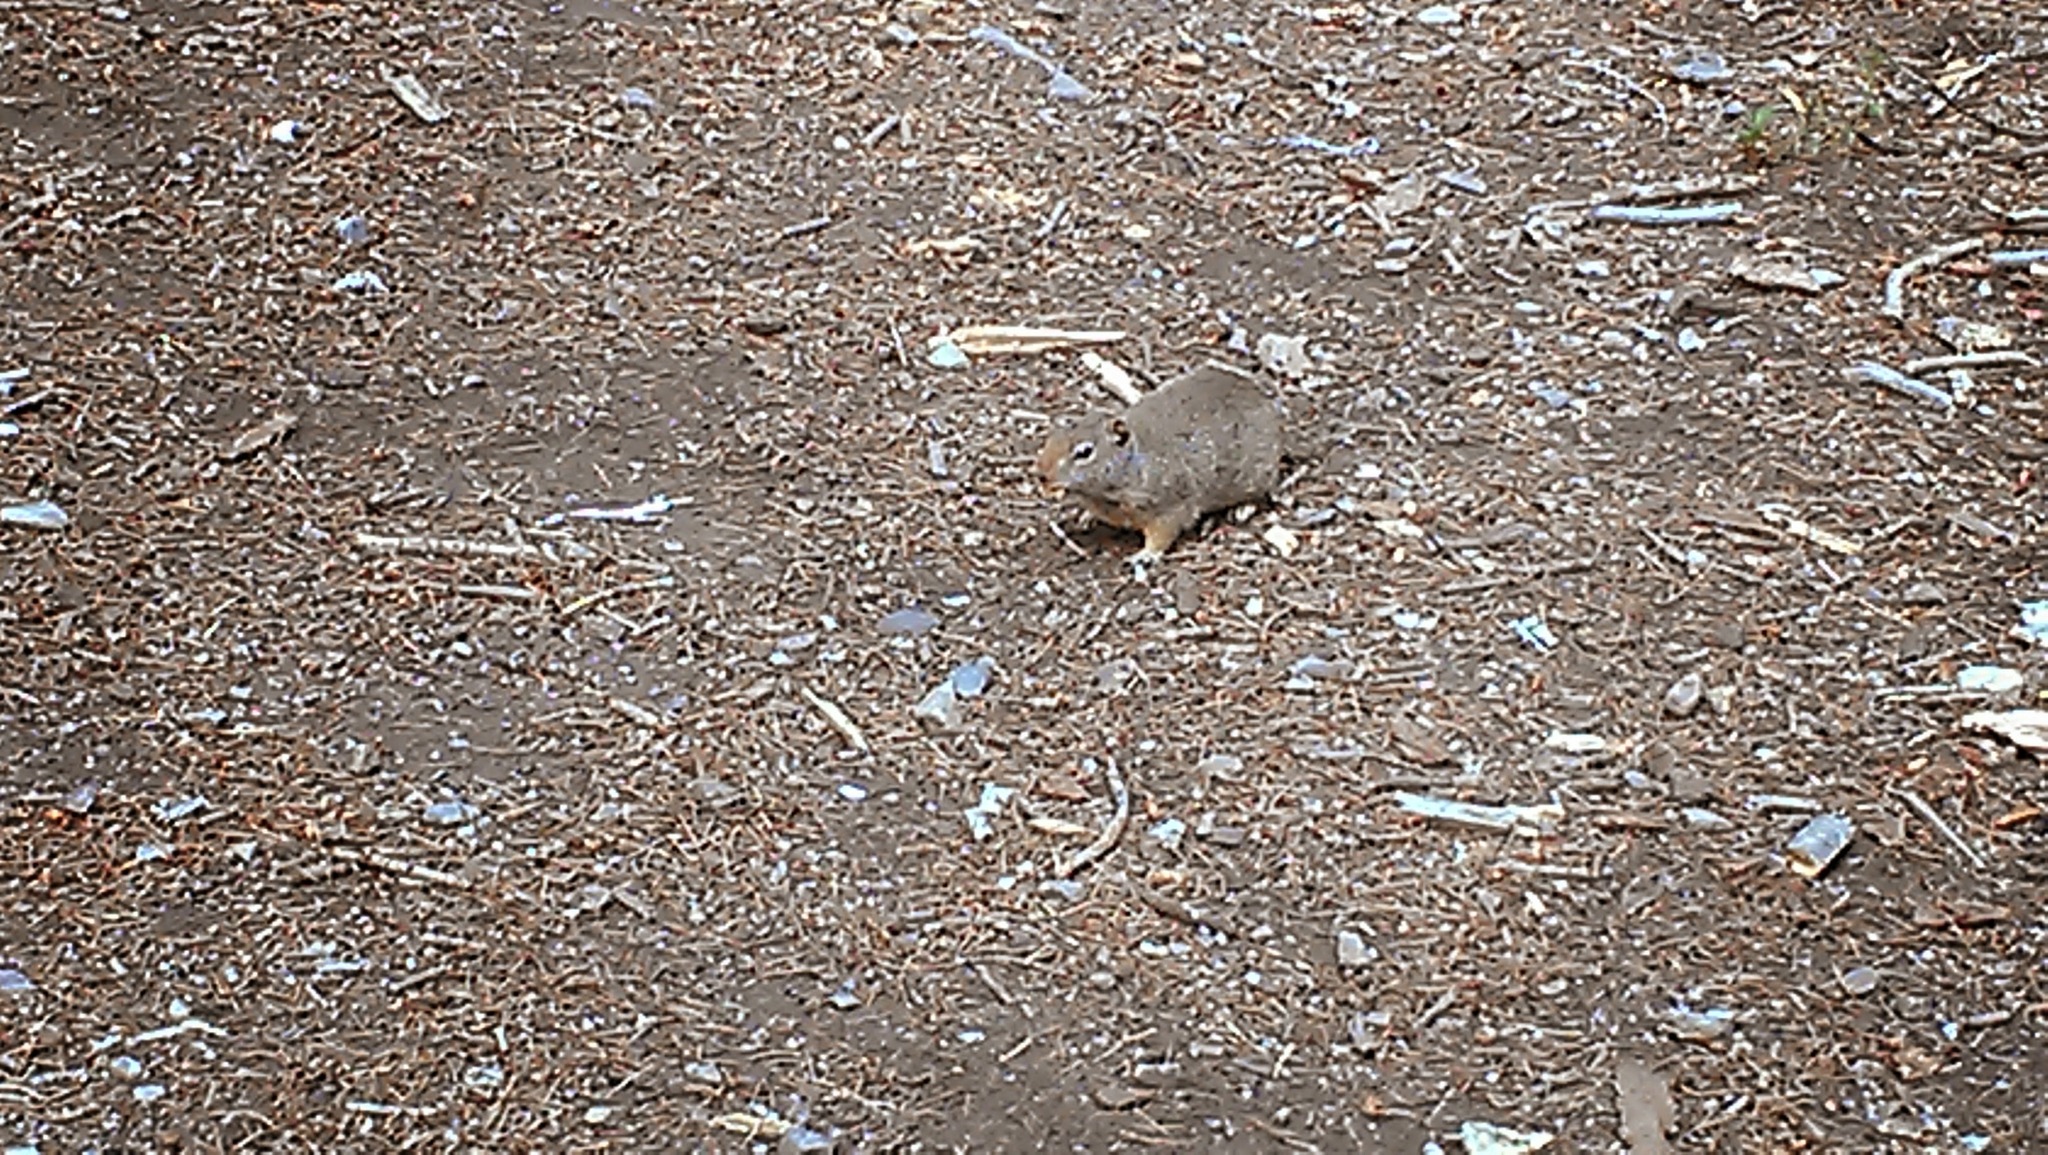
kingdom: Animalia
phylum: Chordata
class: Mammalia
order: Rodentia
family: Sciuridae
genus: Urocitellus
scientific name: Urocitellus armatus
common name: Uinta ground squirrel
